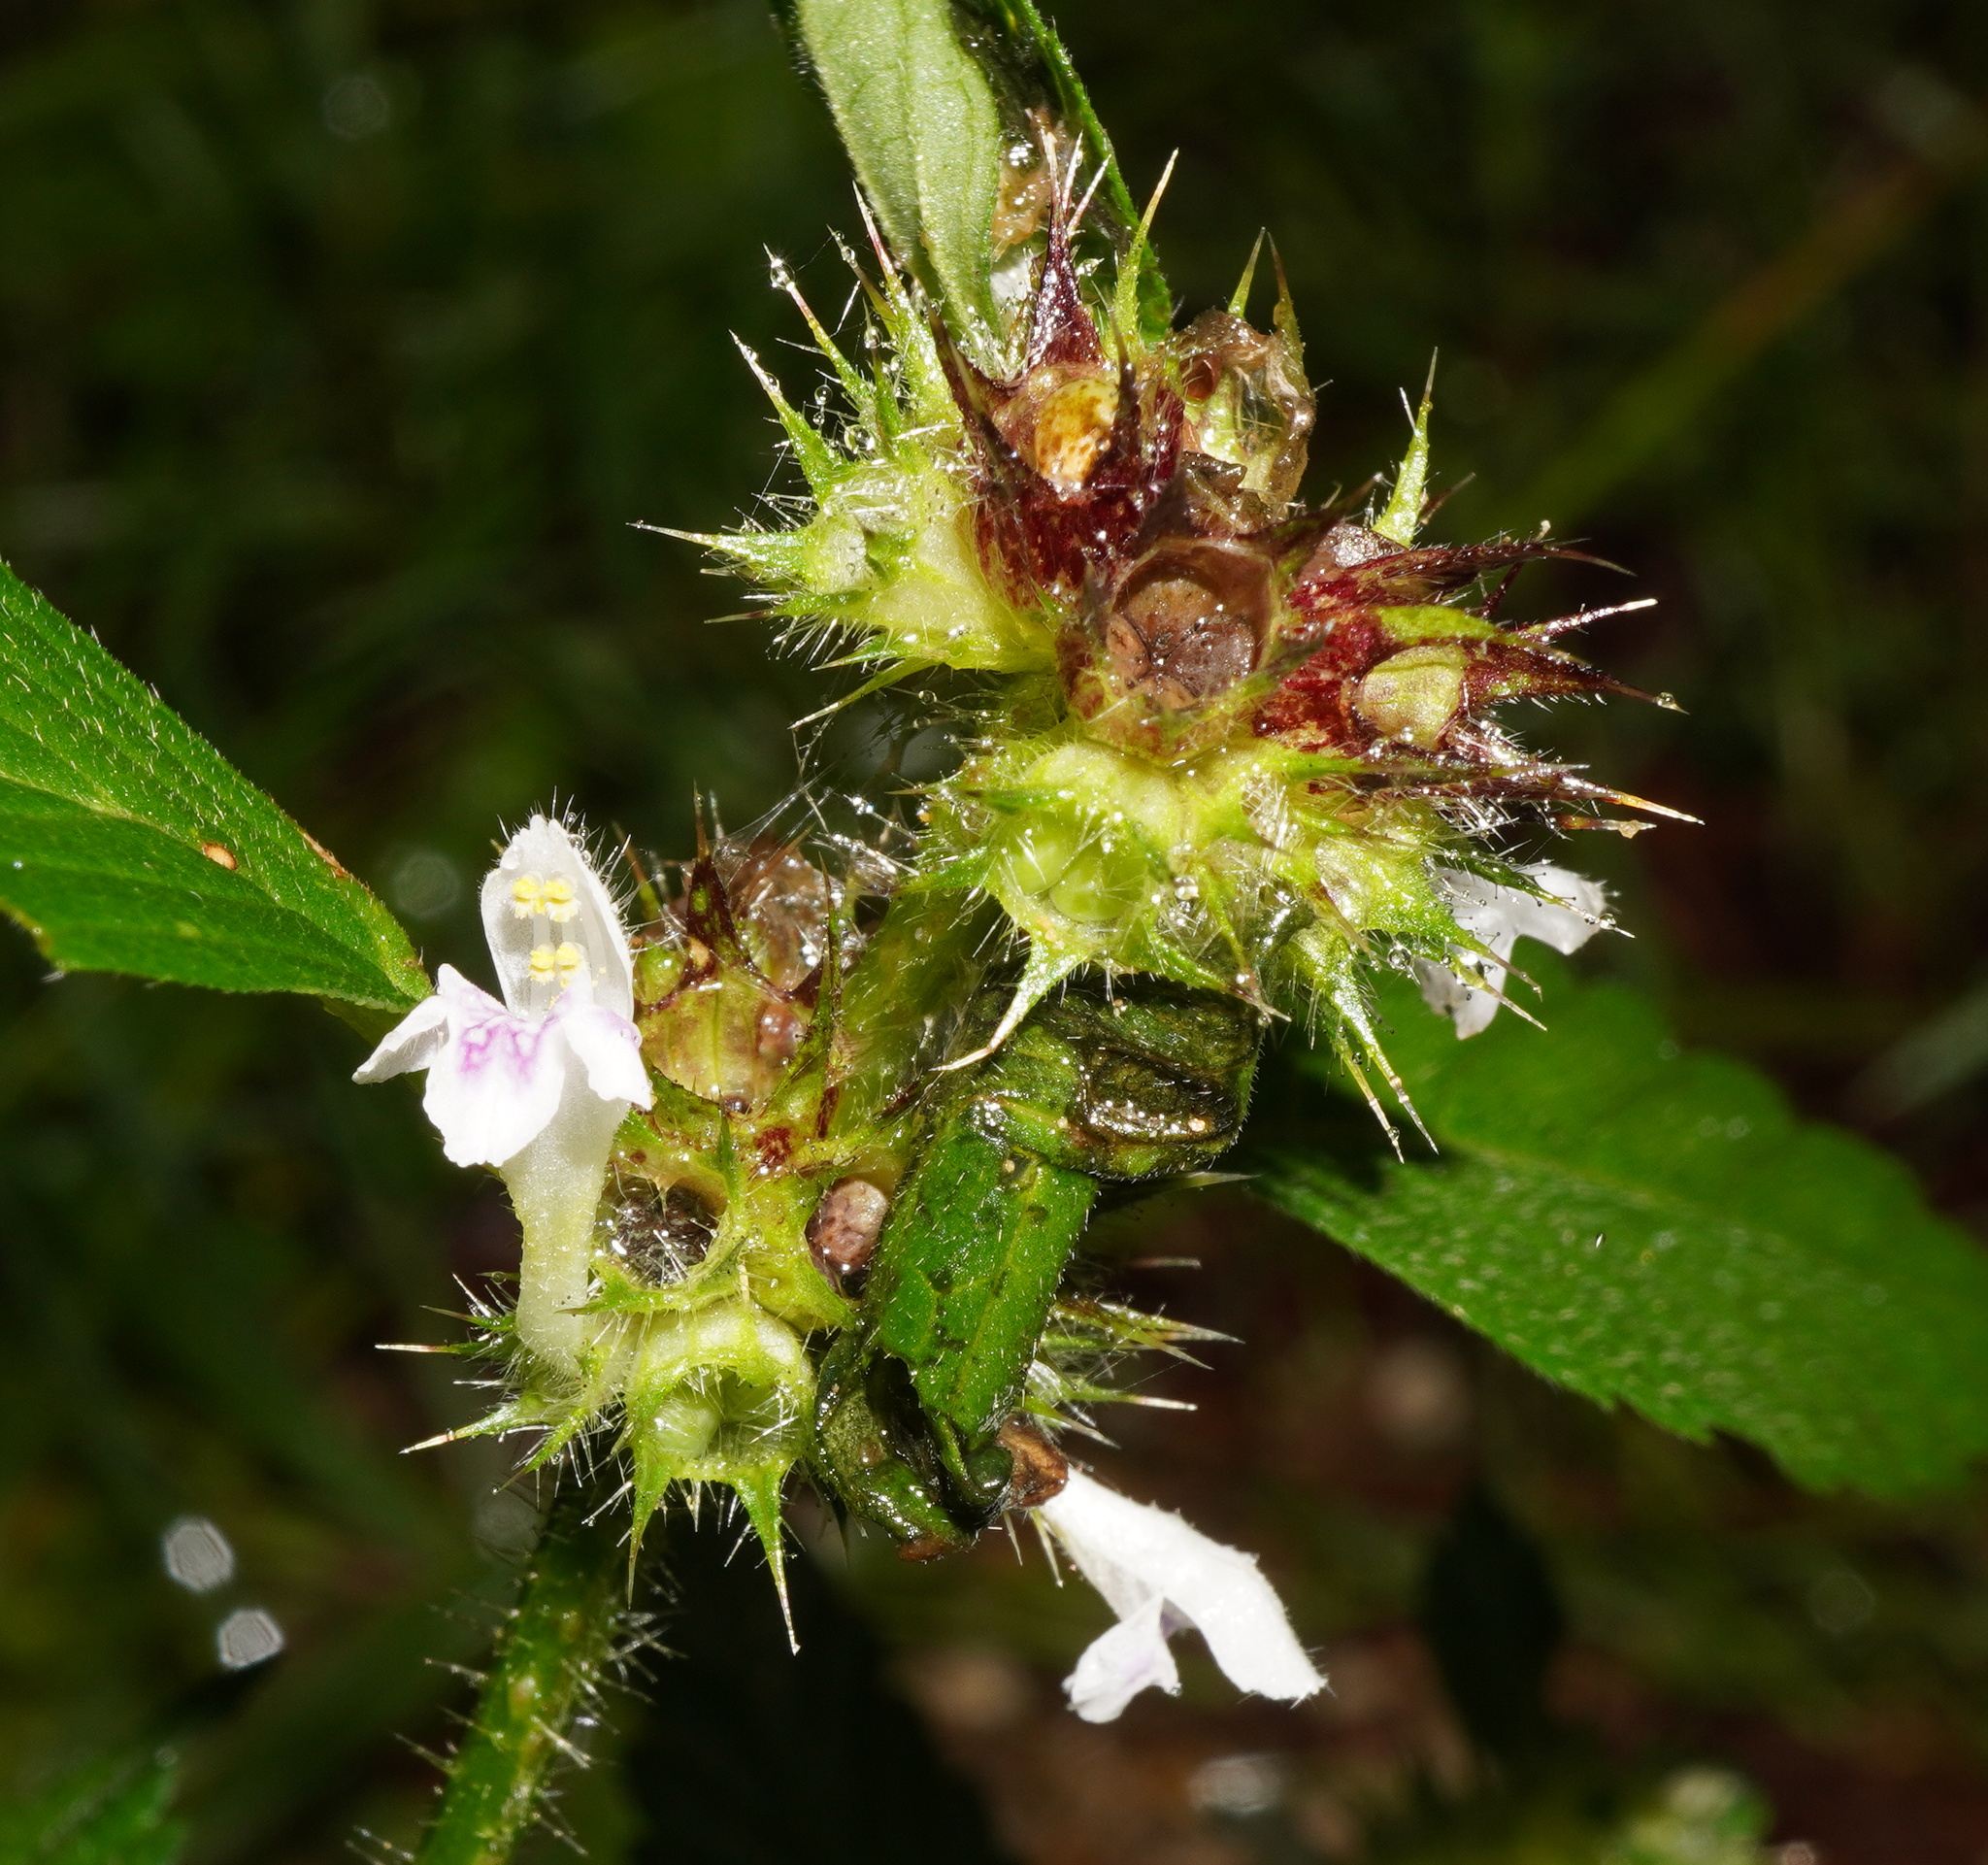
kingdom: Plantae
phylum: Tracheophyta
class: Magnoliopsida
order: Lamiales
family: Lamiaceae
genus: Galeopsis
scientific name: Galeopsis tetrahit
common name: Common hemp-nettle
